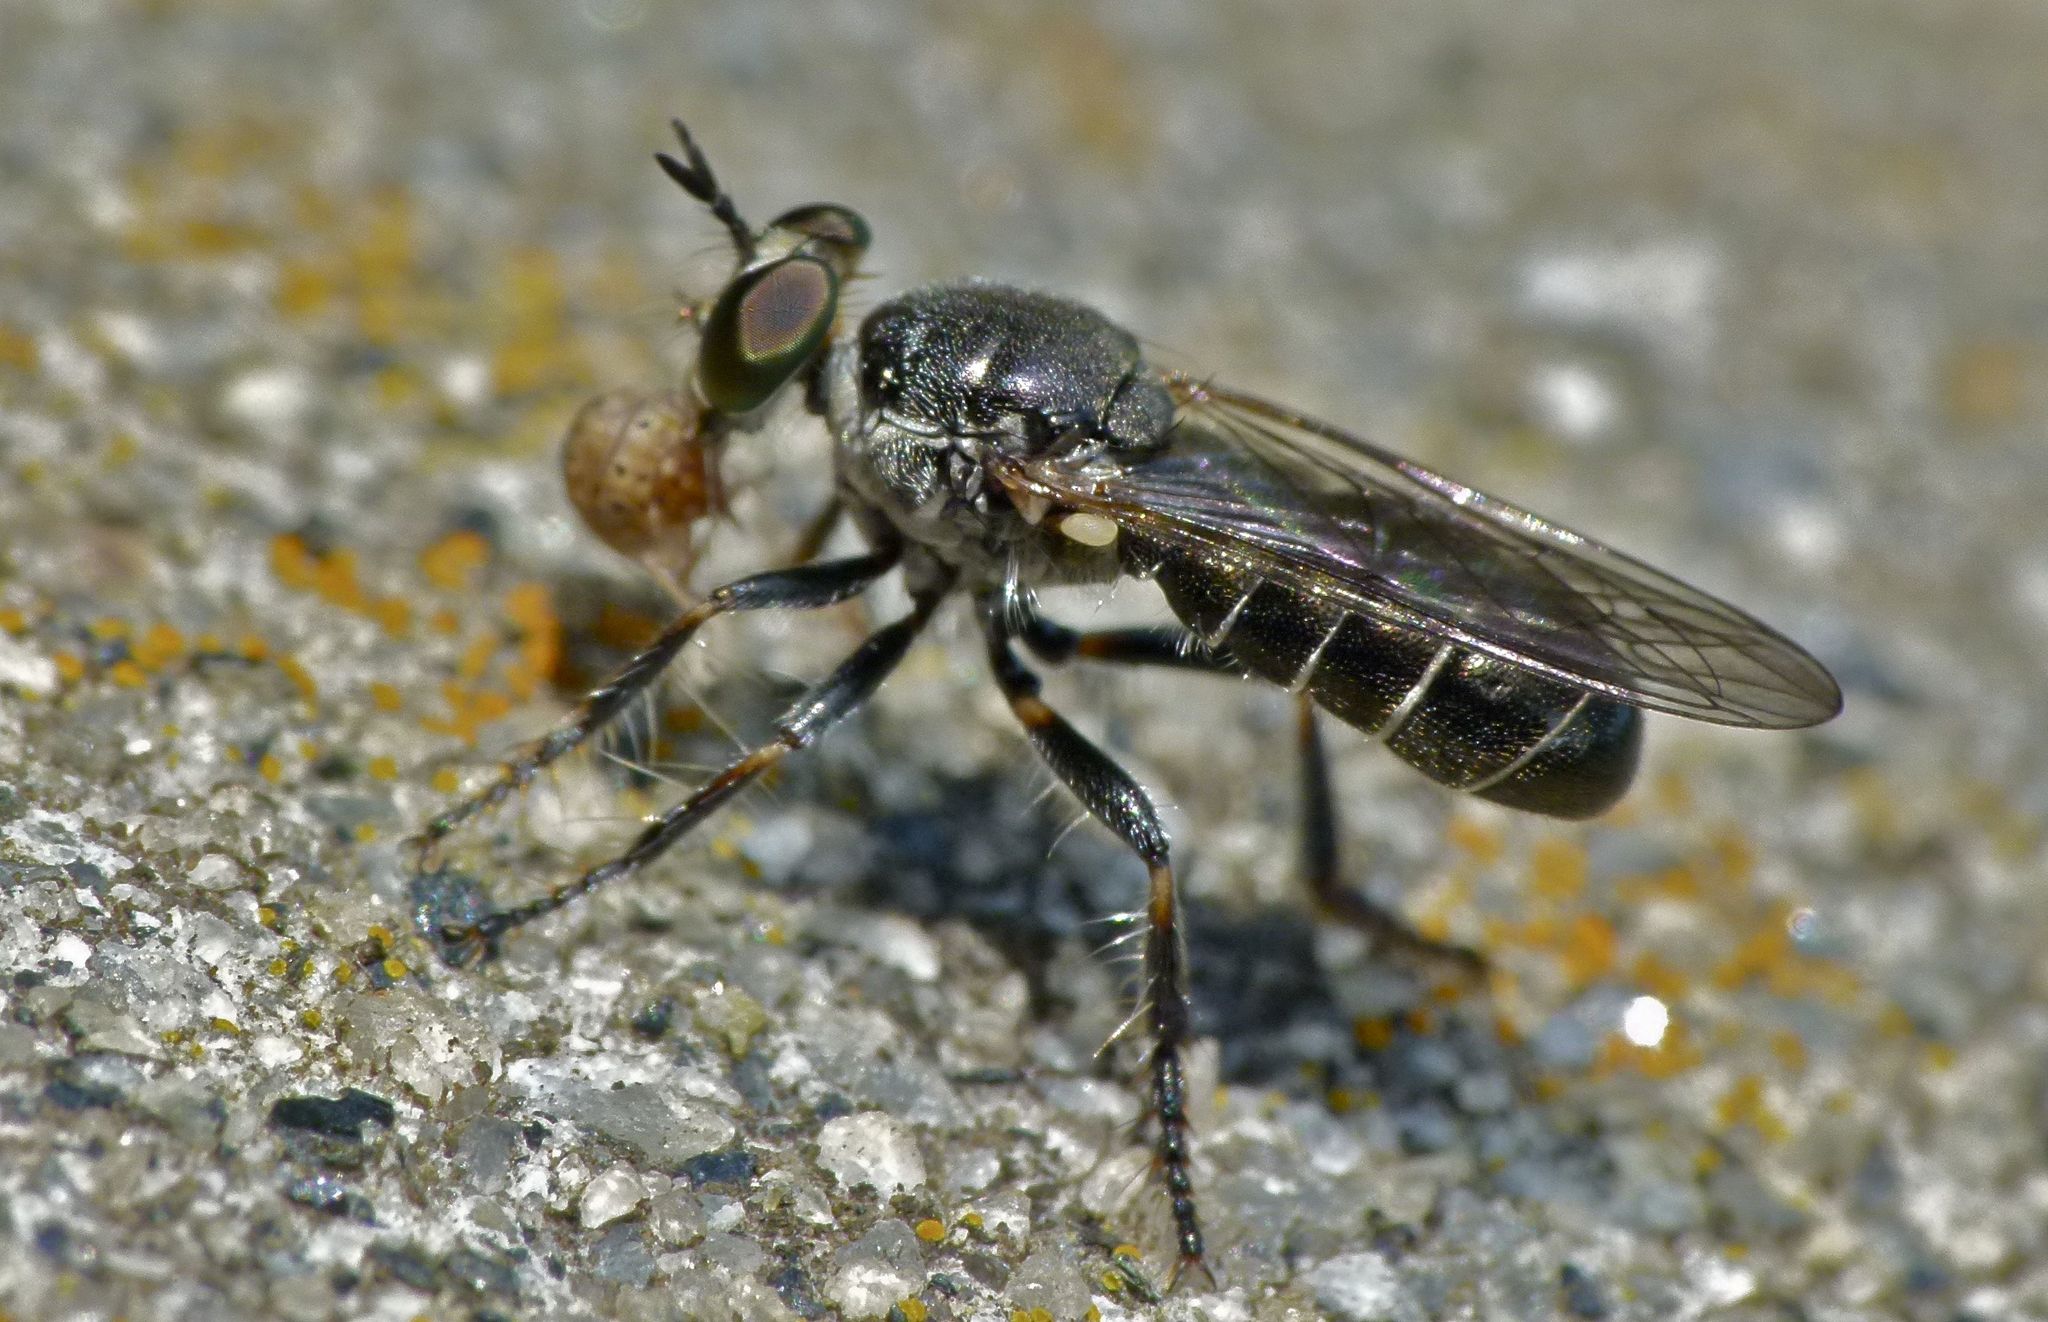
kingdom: Animalia
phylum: Arthropoda
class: Insecta
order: Diptera
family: Asilidae
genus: Atomosia
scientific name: Atomosia puella
